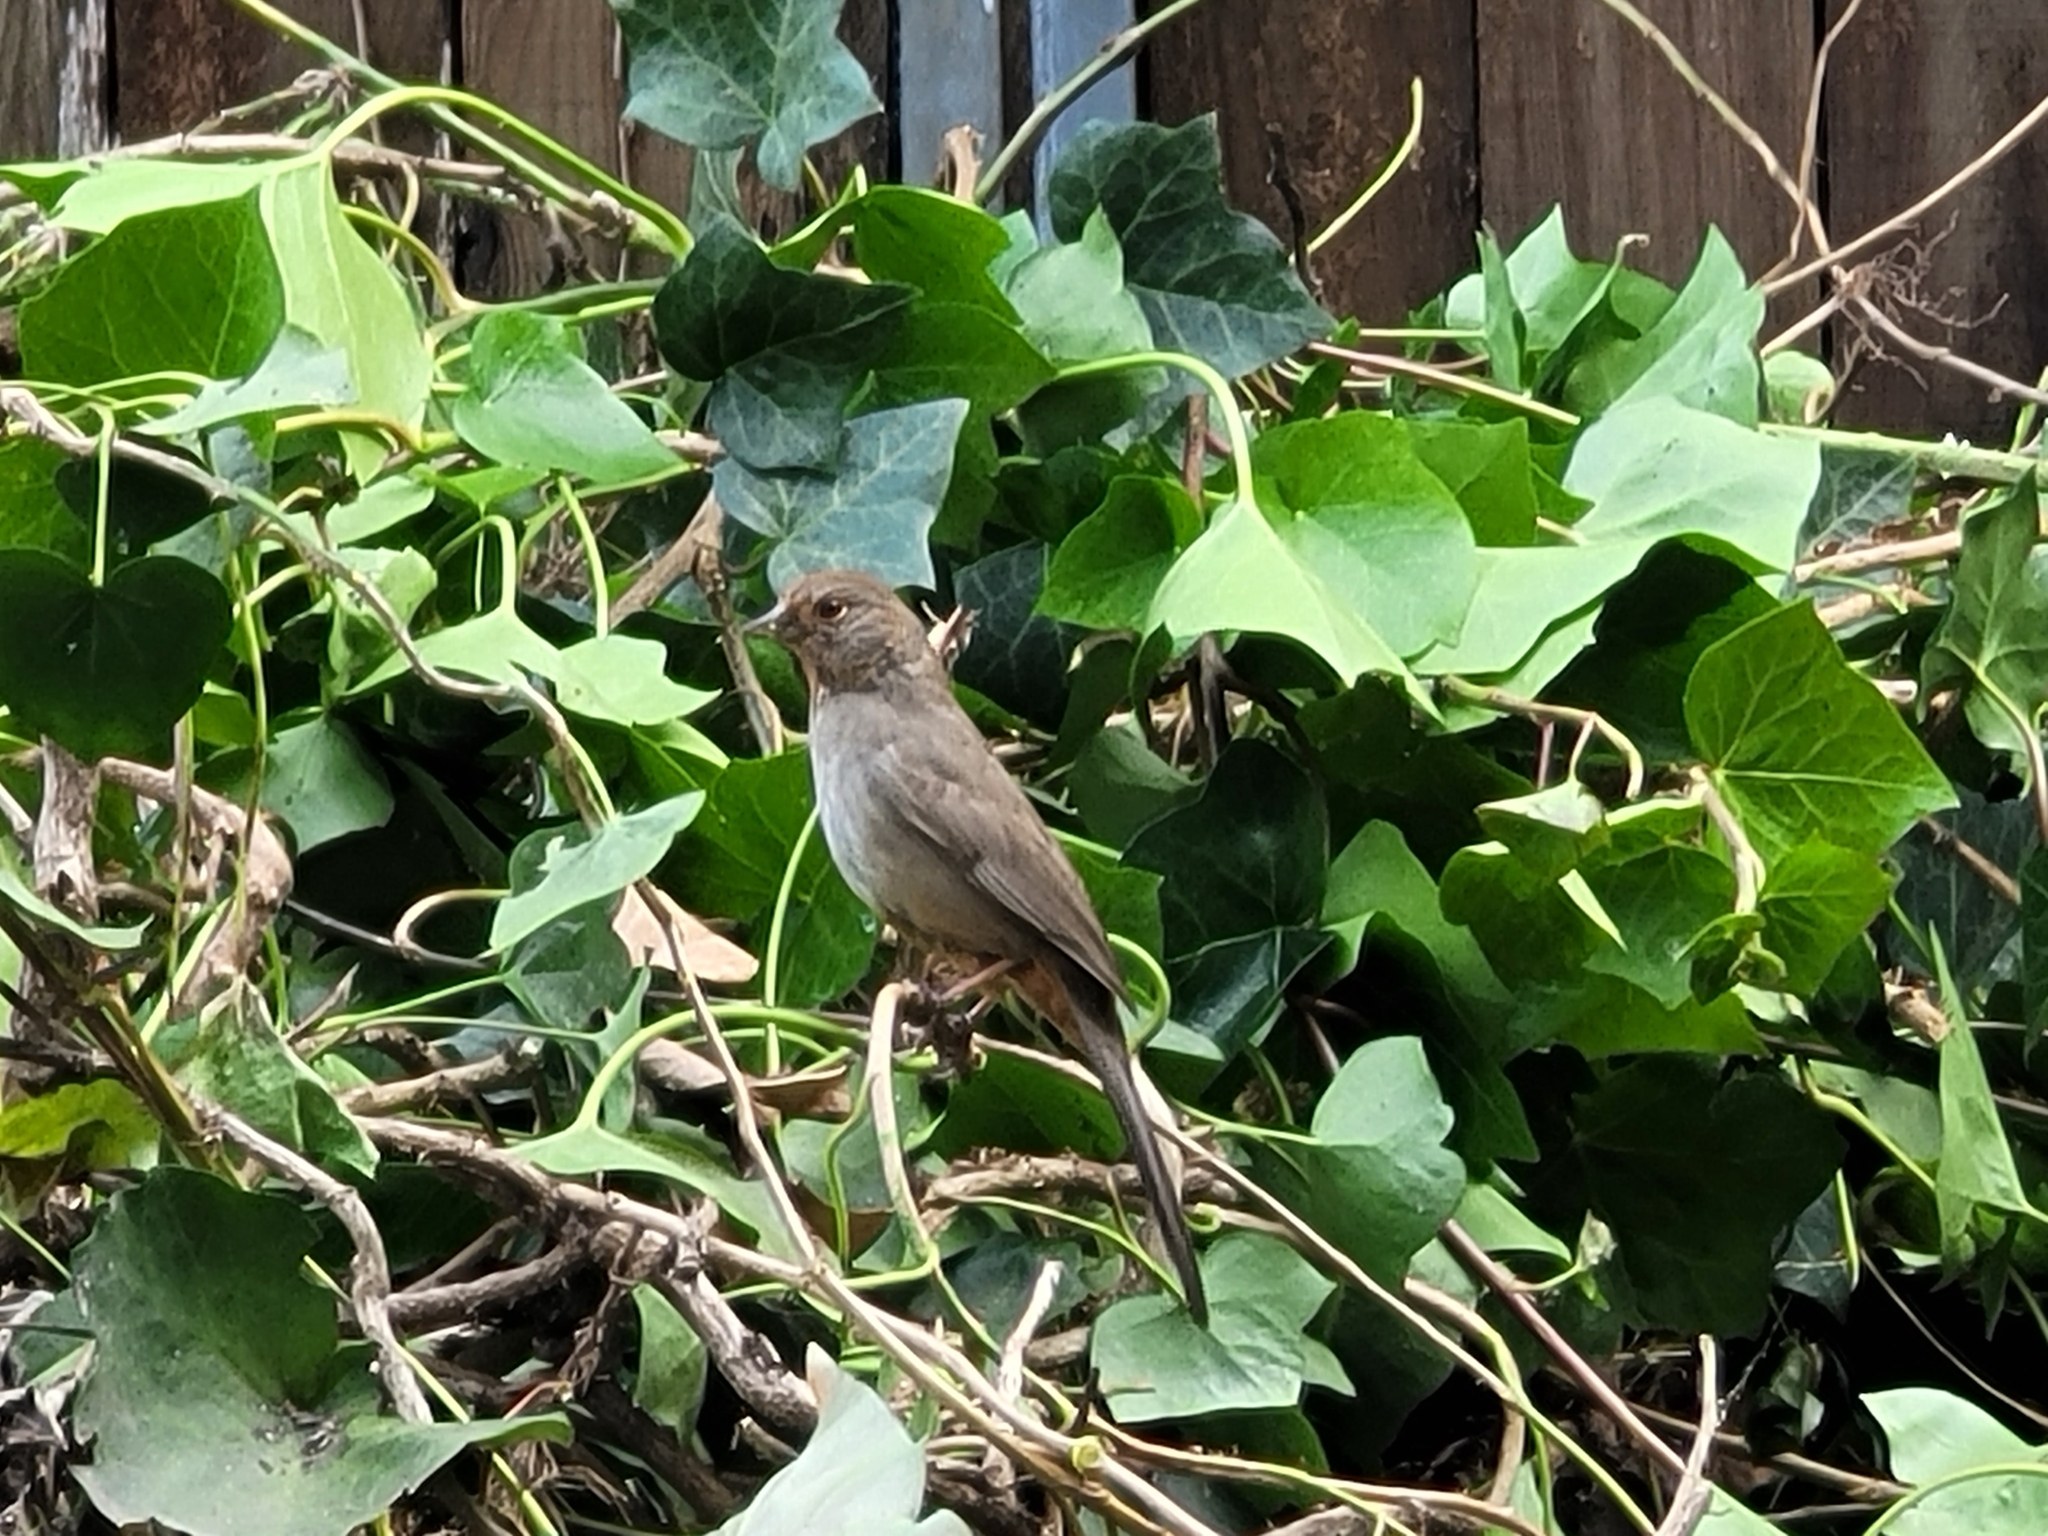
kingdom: Animalia
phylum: Chordata
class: Aves
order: Passeriformes
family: Passerellidae
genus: Melozone
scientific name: Melozone crissalis
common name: California towhee
